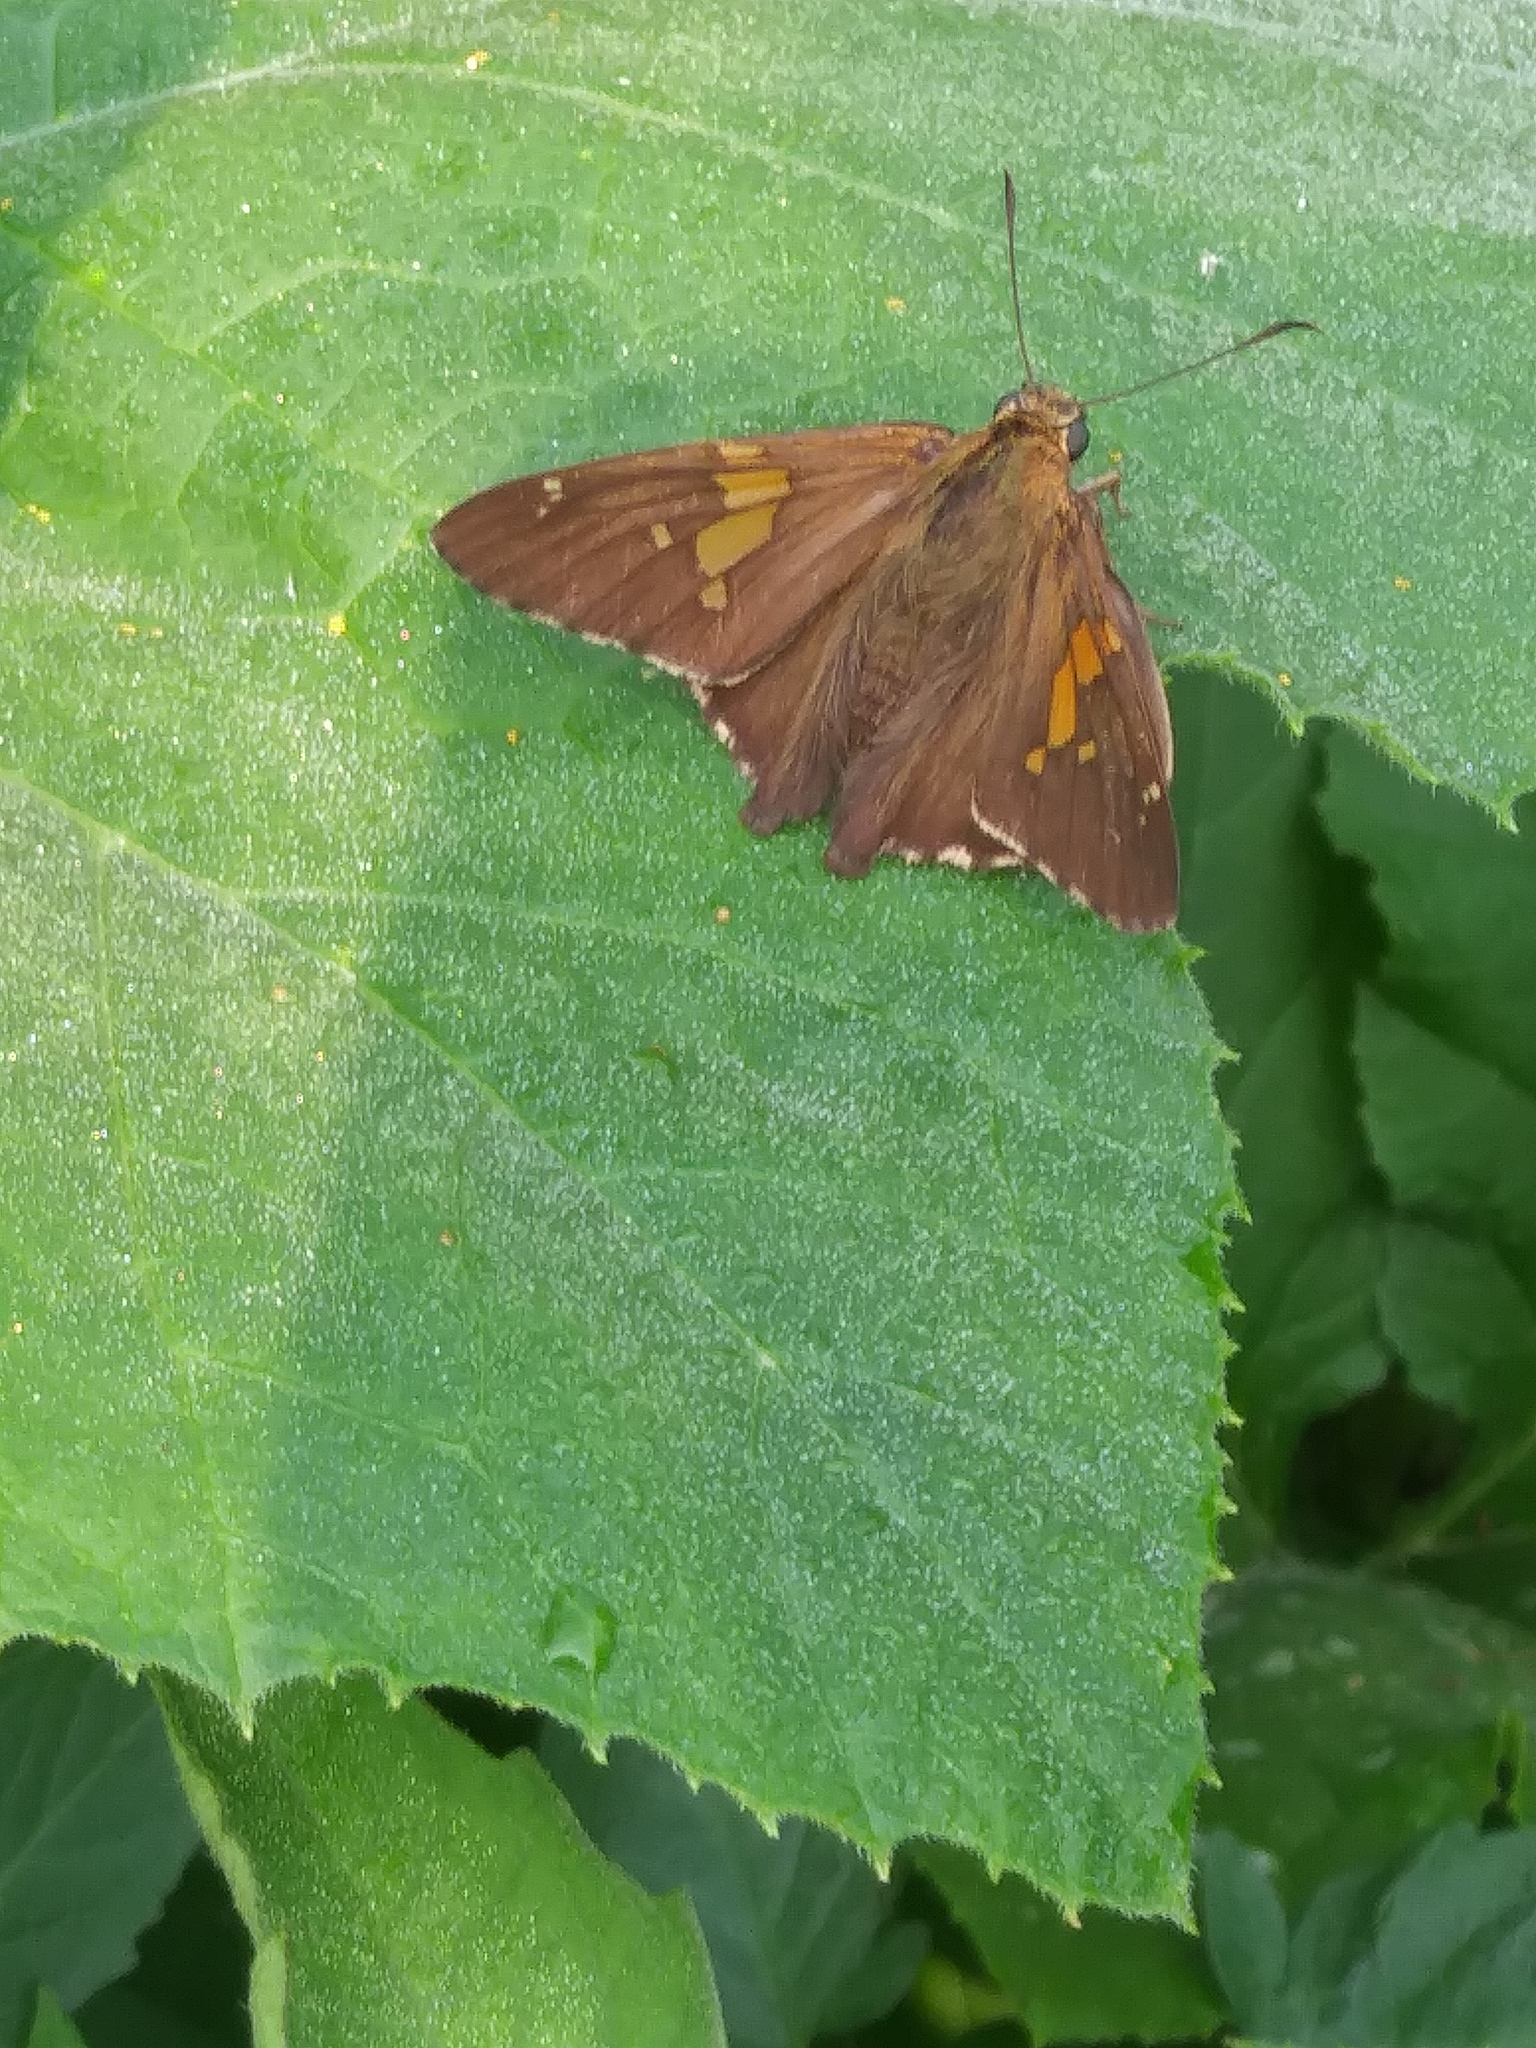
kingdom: Animalia
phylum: Arthropoda
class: Insecta
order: Lepidoptera
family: Hesperiidae
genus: Epargyreus
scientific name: Epargyreus clarus
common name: Silver-spotted skipper
